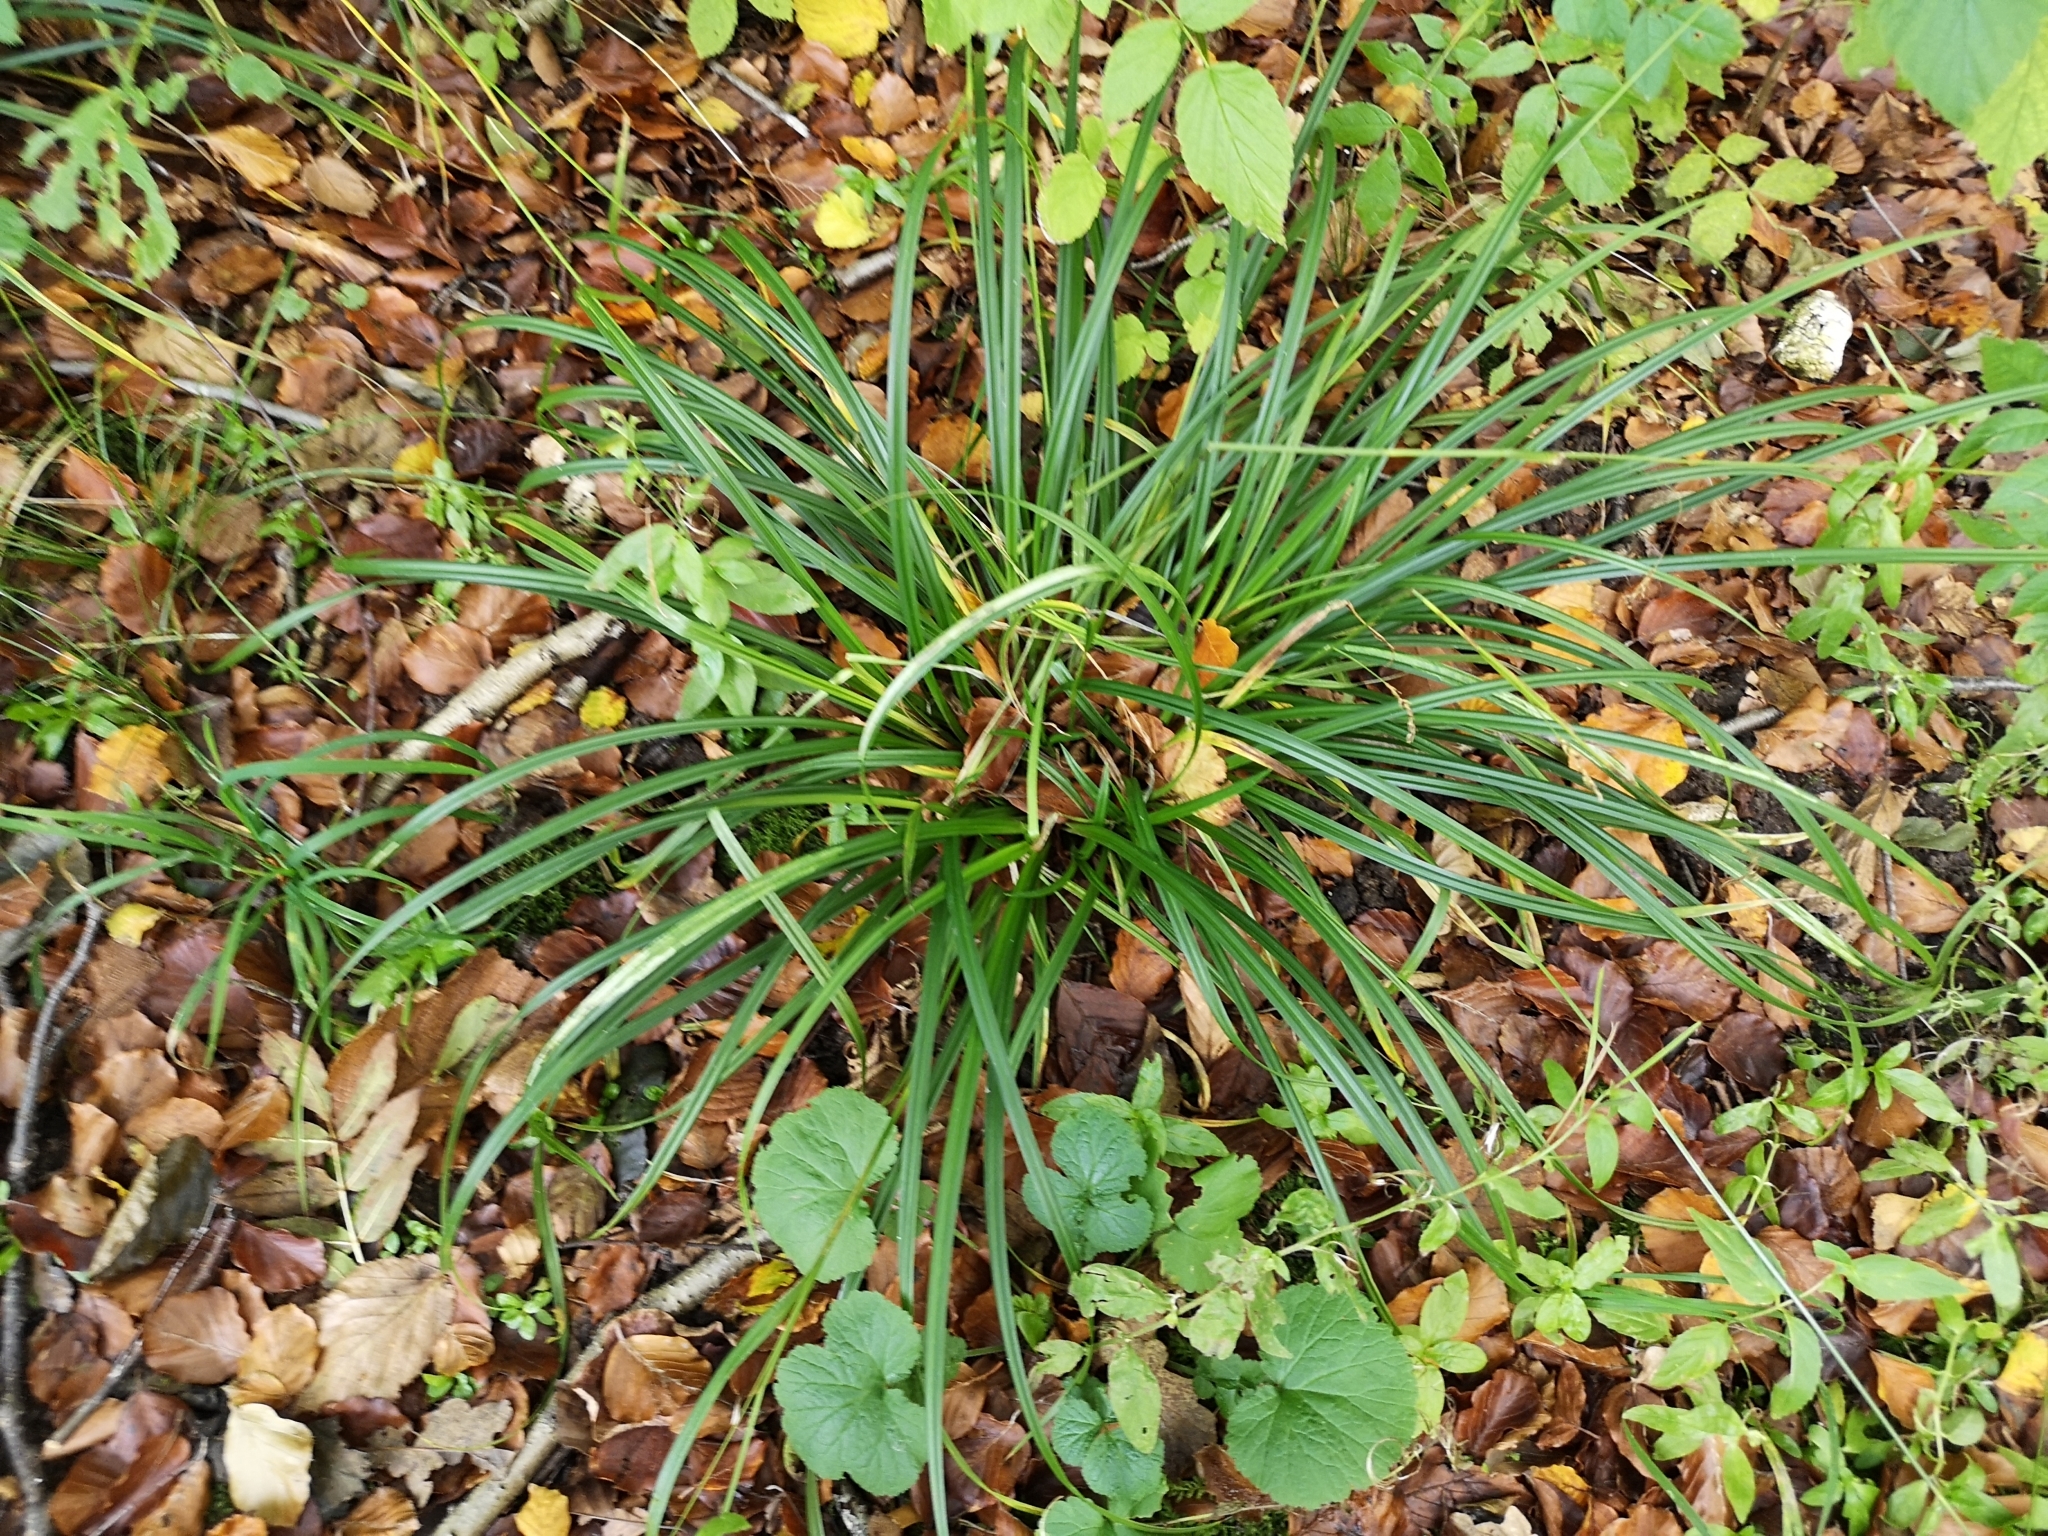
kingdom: Plantae
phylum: Tracheophyta
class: Liliopsida
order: Poales
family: Cyperaceae
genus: Carex
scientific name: Carex sylvatica
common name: Wood-sedge
